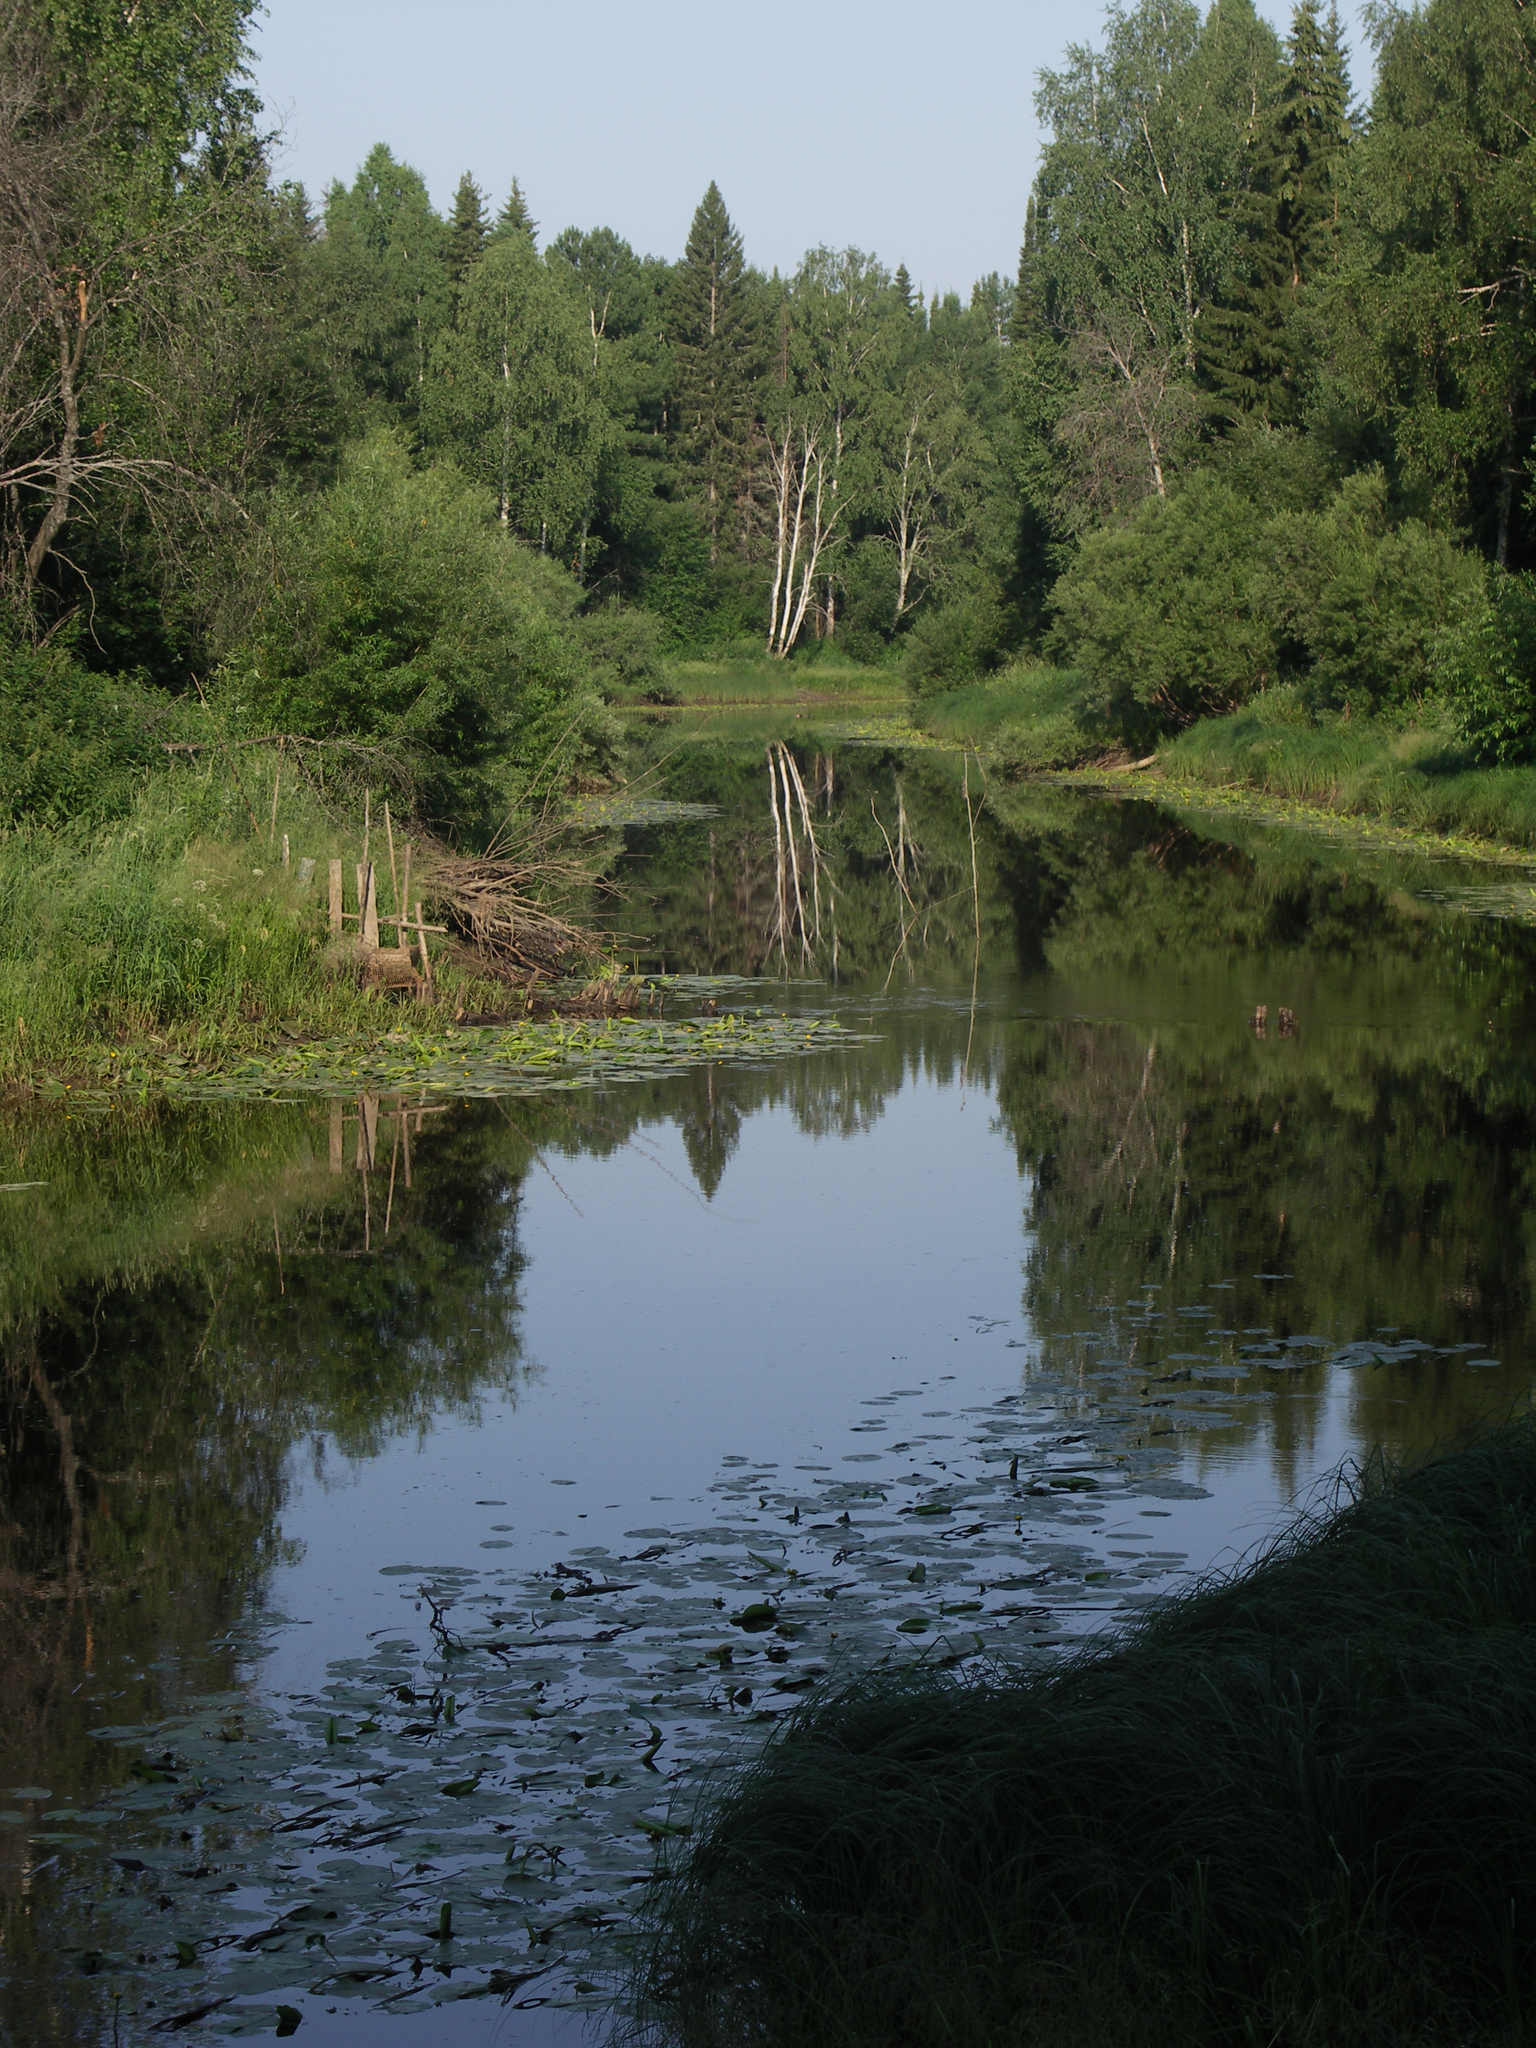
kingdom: Plantae
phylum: Tracheophyta
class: Magnoliopsida
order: Fagales
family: Betulaceae
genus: Betula
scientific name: Betula pendula
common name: Silver birch
